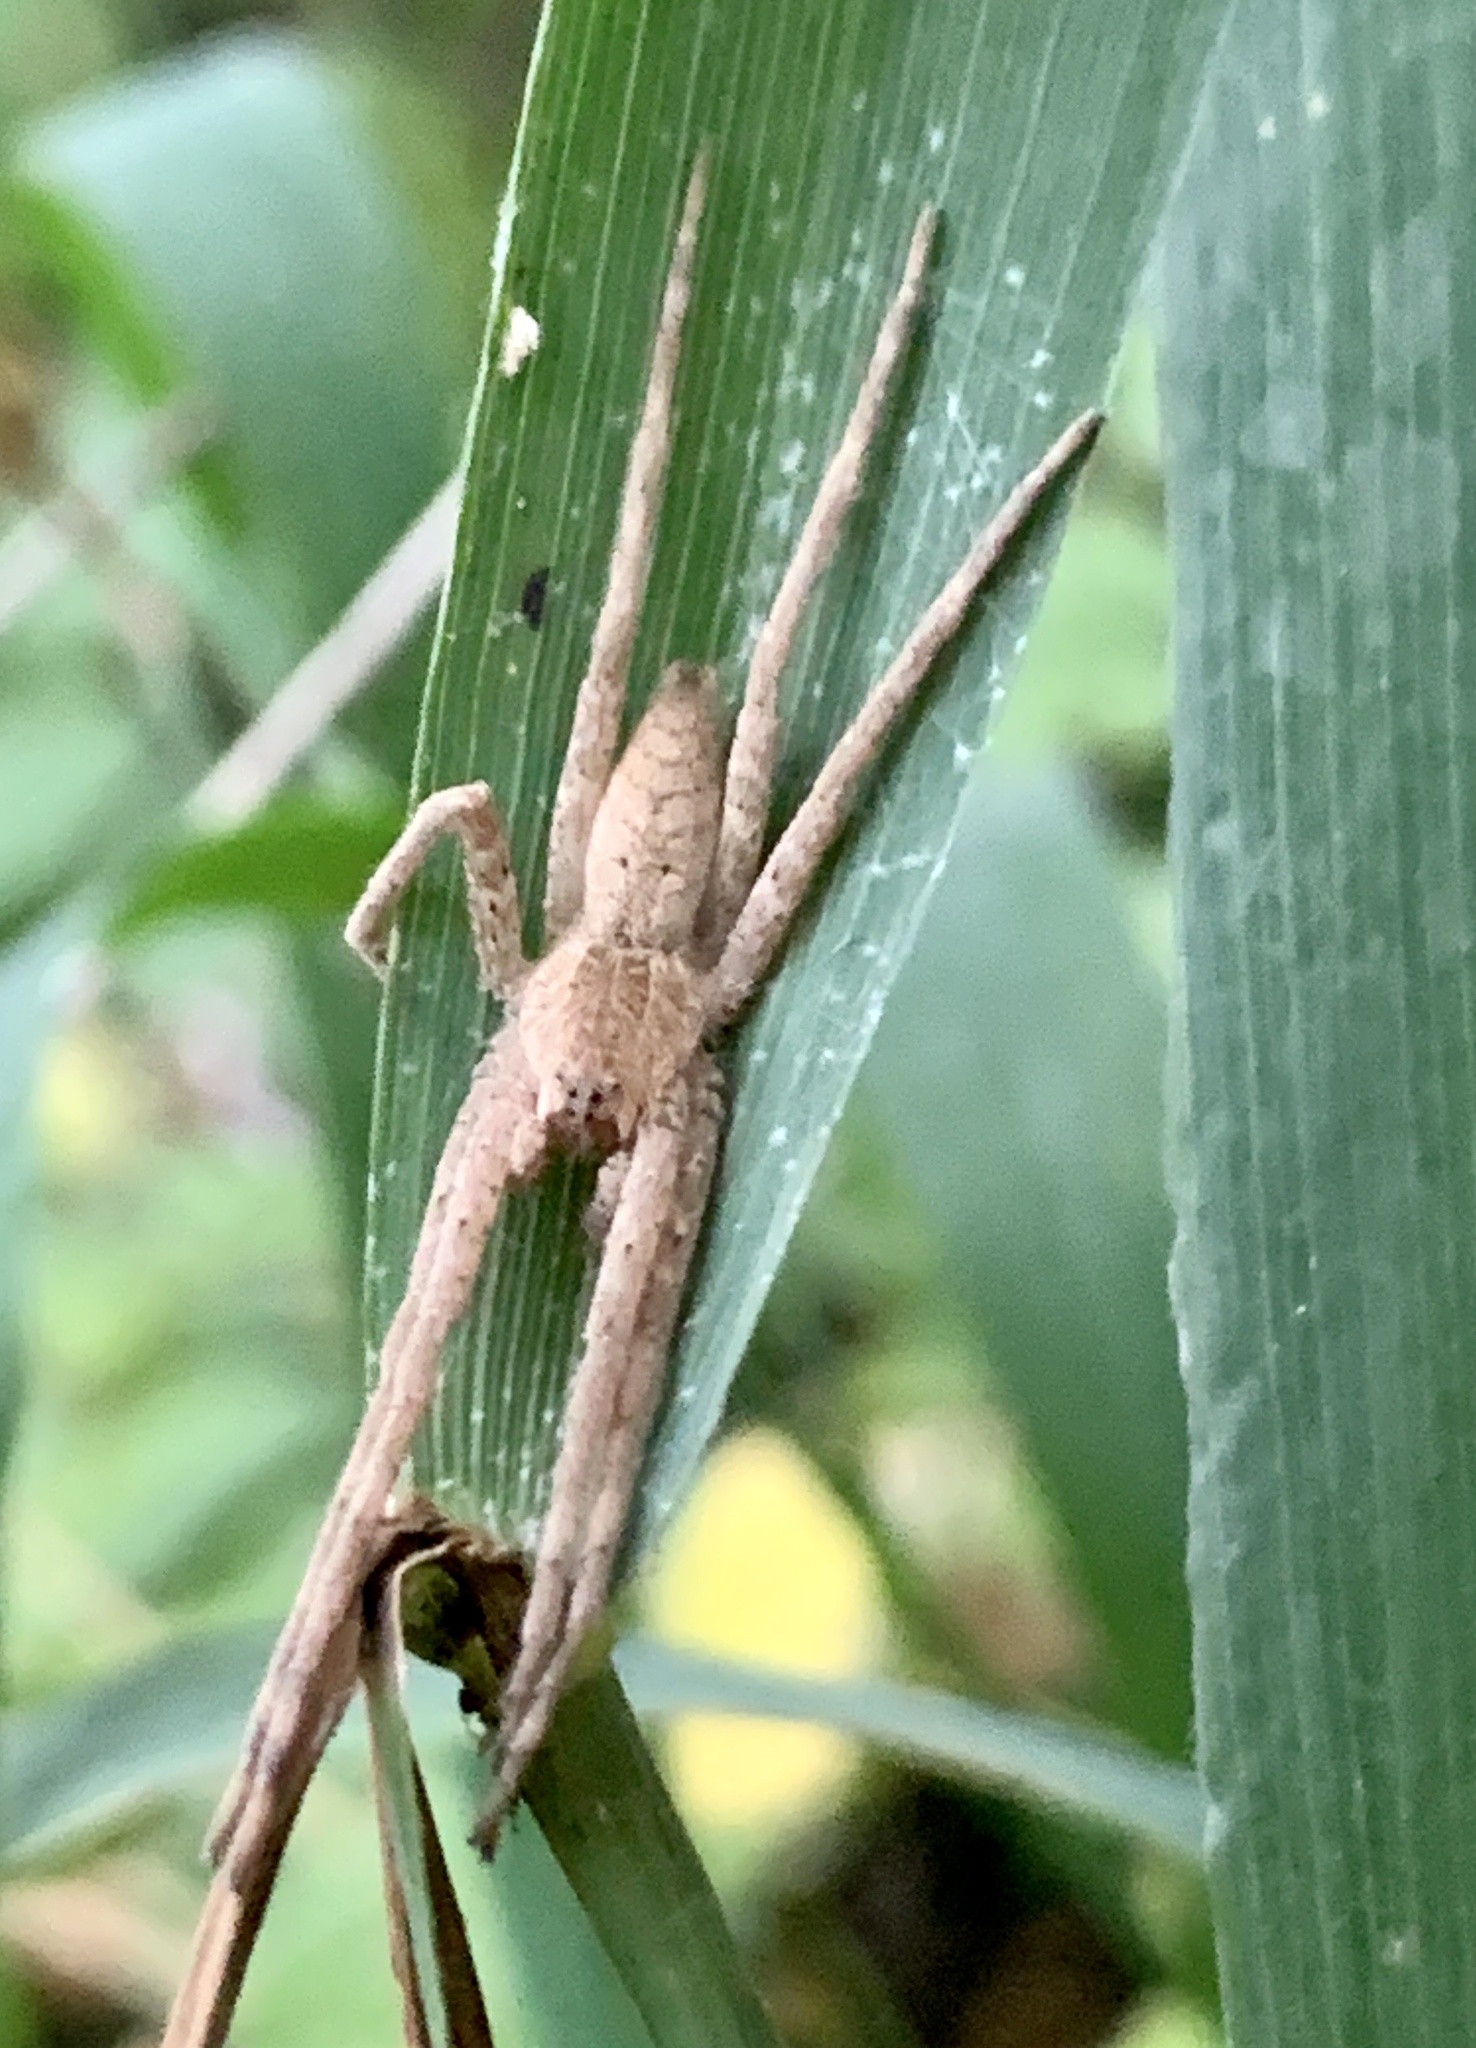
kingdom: Animalia
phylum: Arthropoda
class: Arachnida
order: Araneae
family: Pisauridae
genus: Pisaurina
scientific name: Pisaurina mira
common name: American nursery web spider
